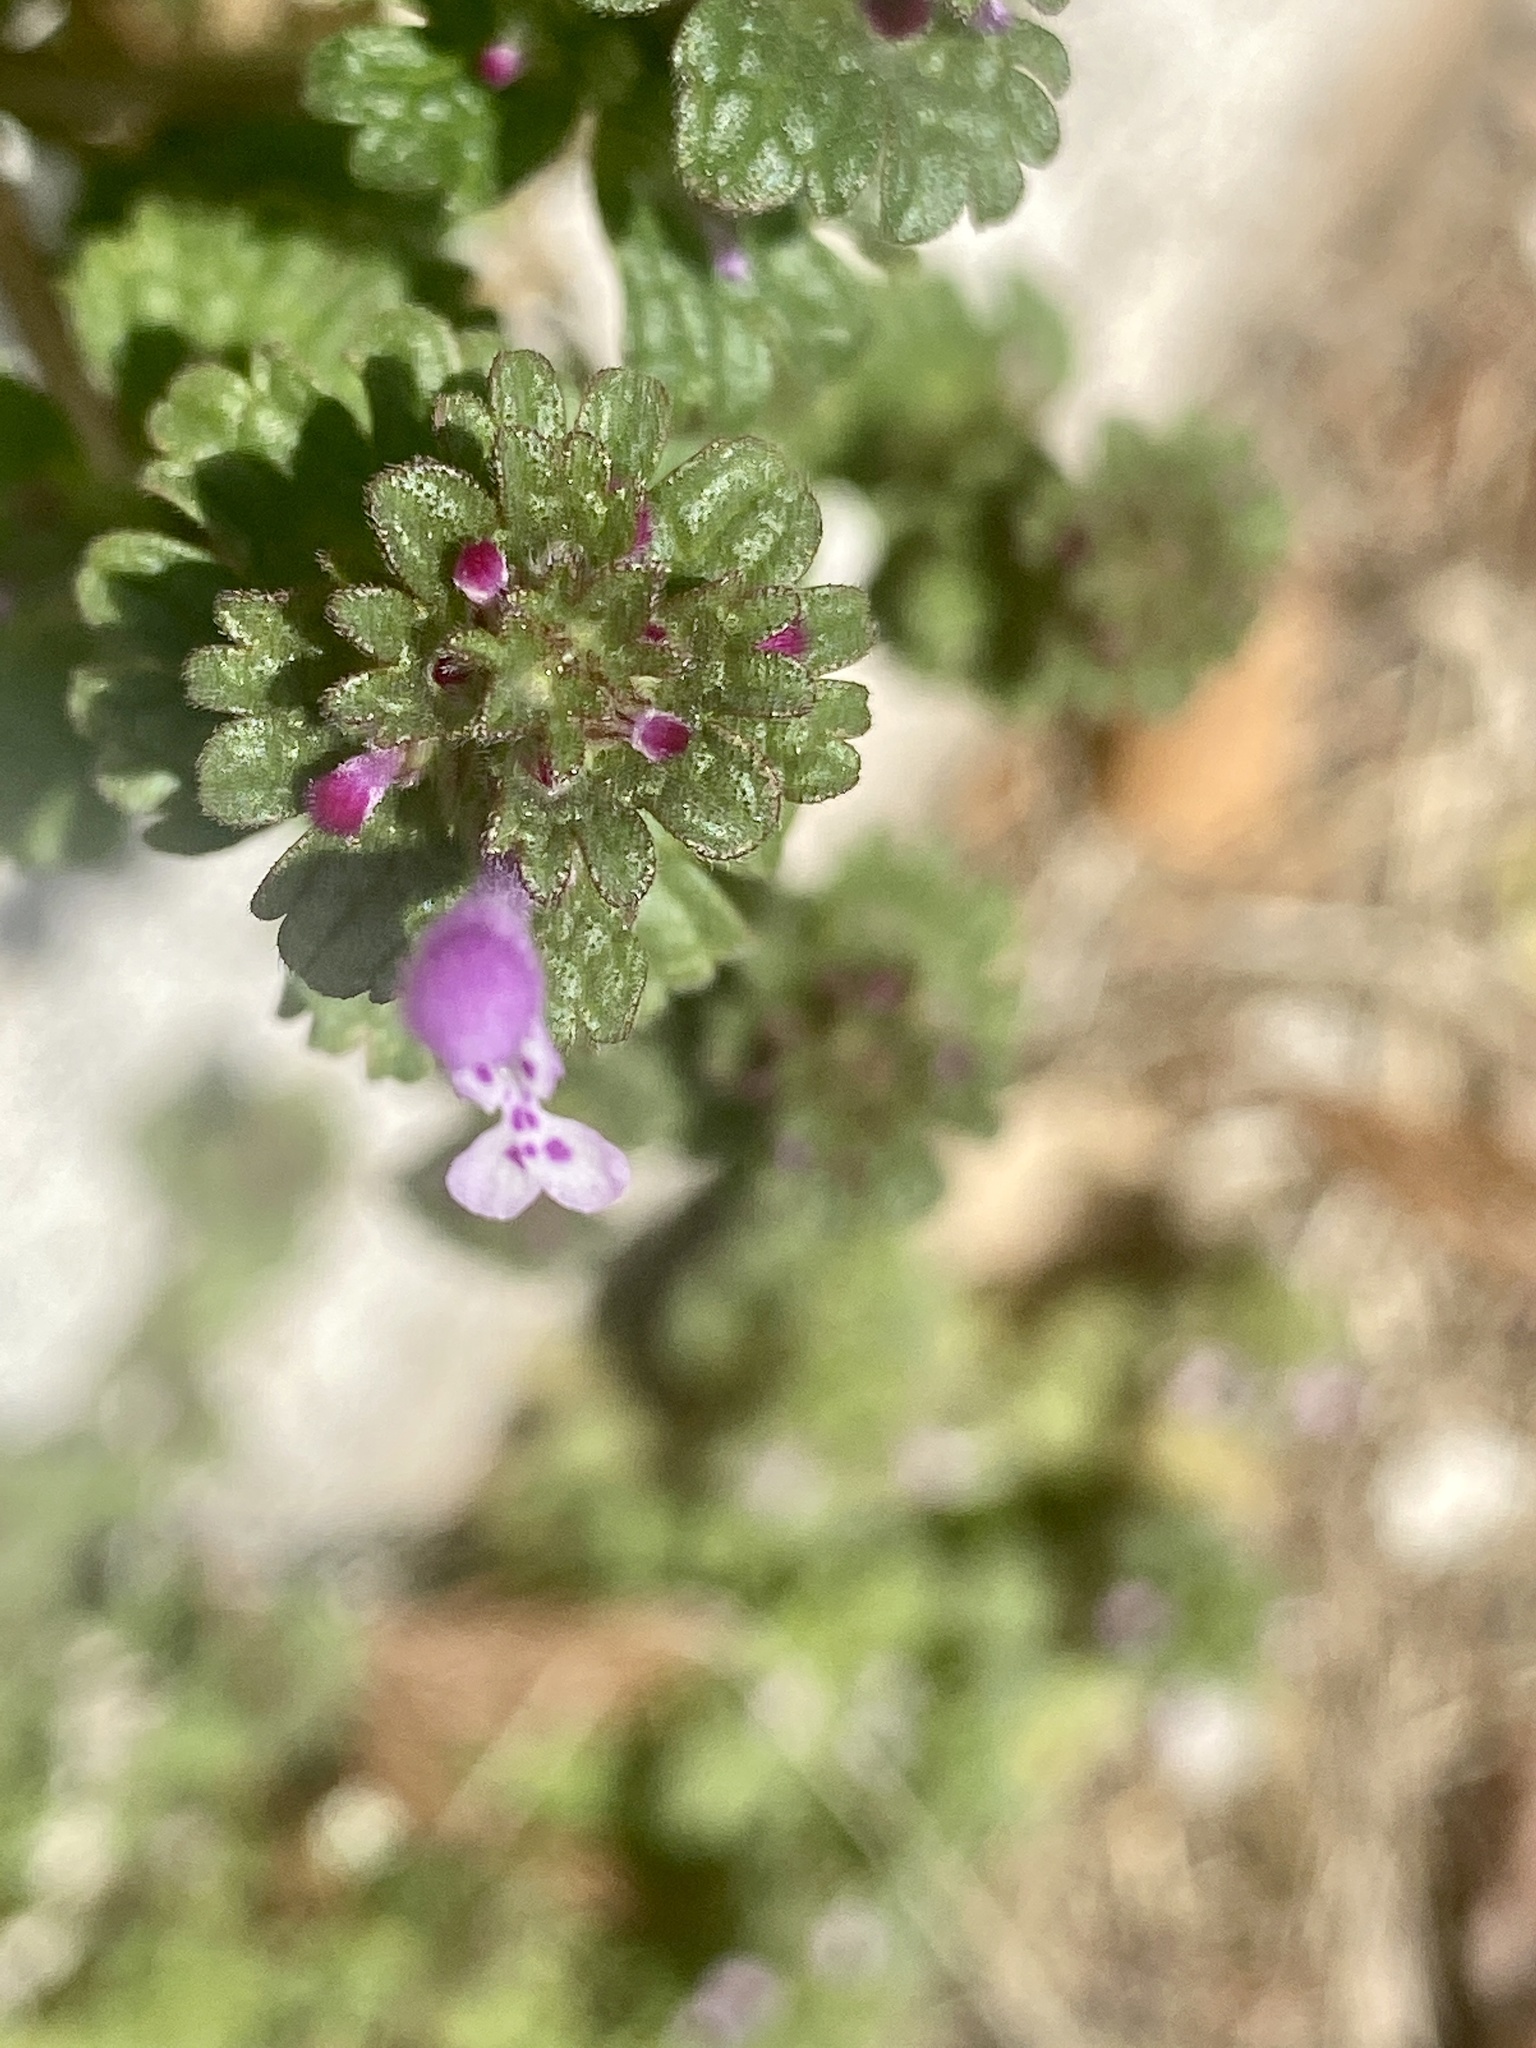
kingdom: Plantae
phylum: Tracheophyta
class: Magnoliopsida
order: Lamiales
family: Lamiaceae
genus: Lamium
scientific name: Lamium amplexicaule
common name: Henbit dead-nettle
